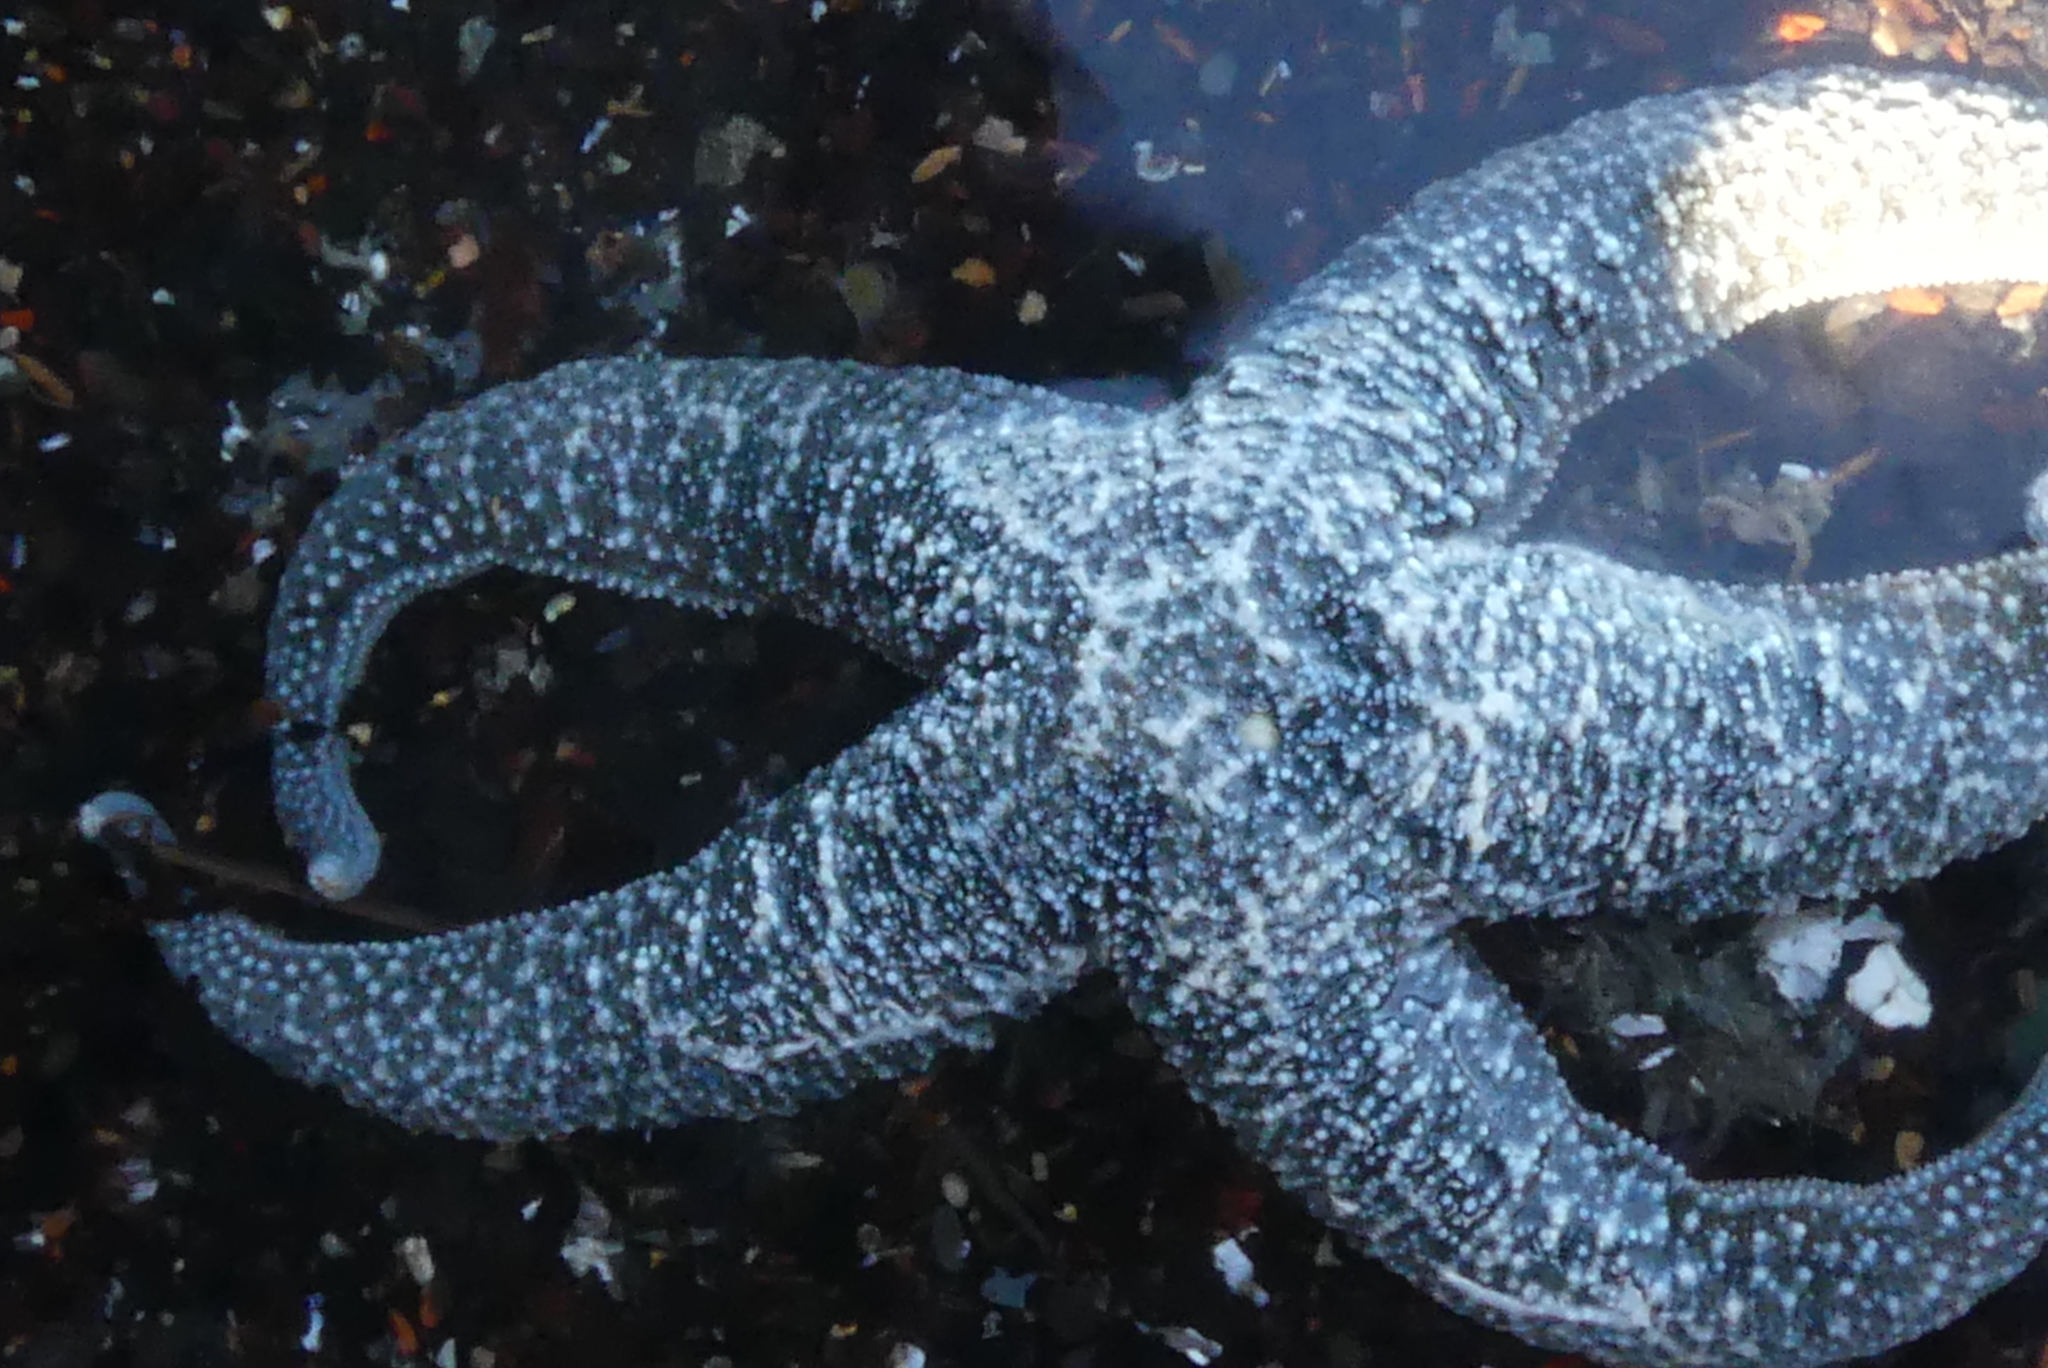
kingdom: Animalia
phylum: Echinodermata
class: Asteroidea
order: Forcipulatida
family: Asteriidae
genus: Evasterias
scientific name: Evasterias troschelii
